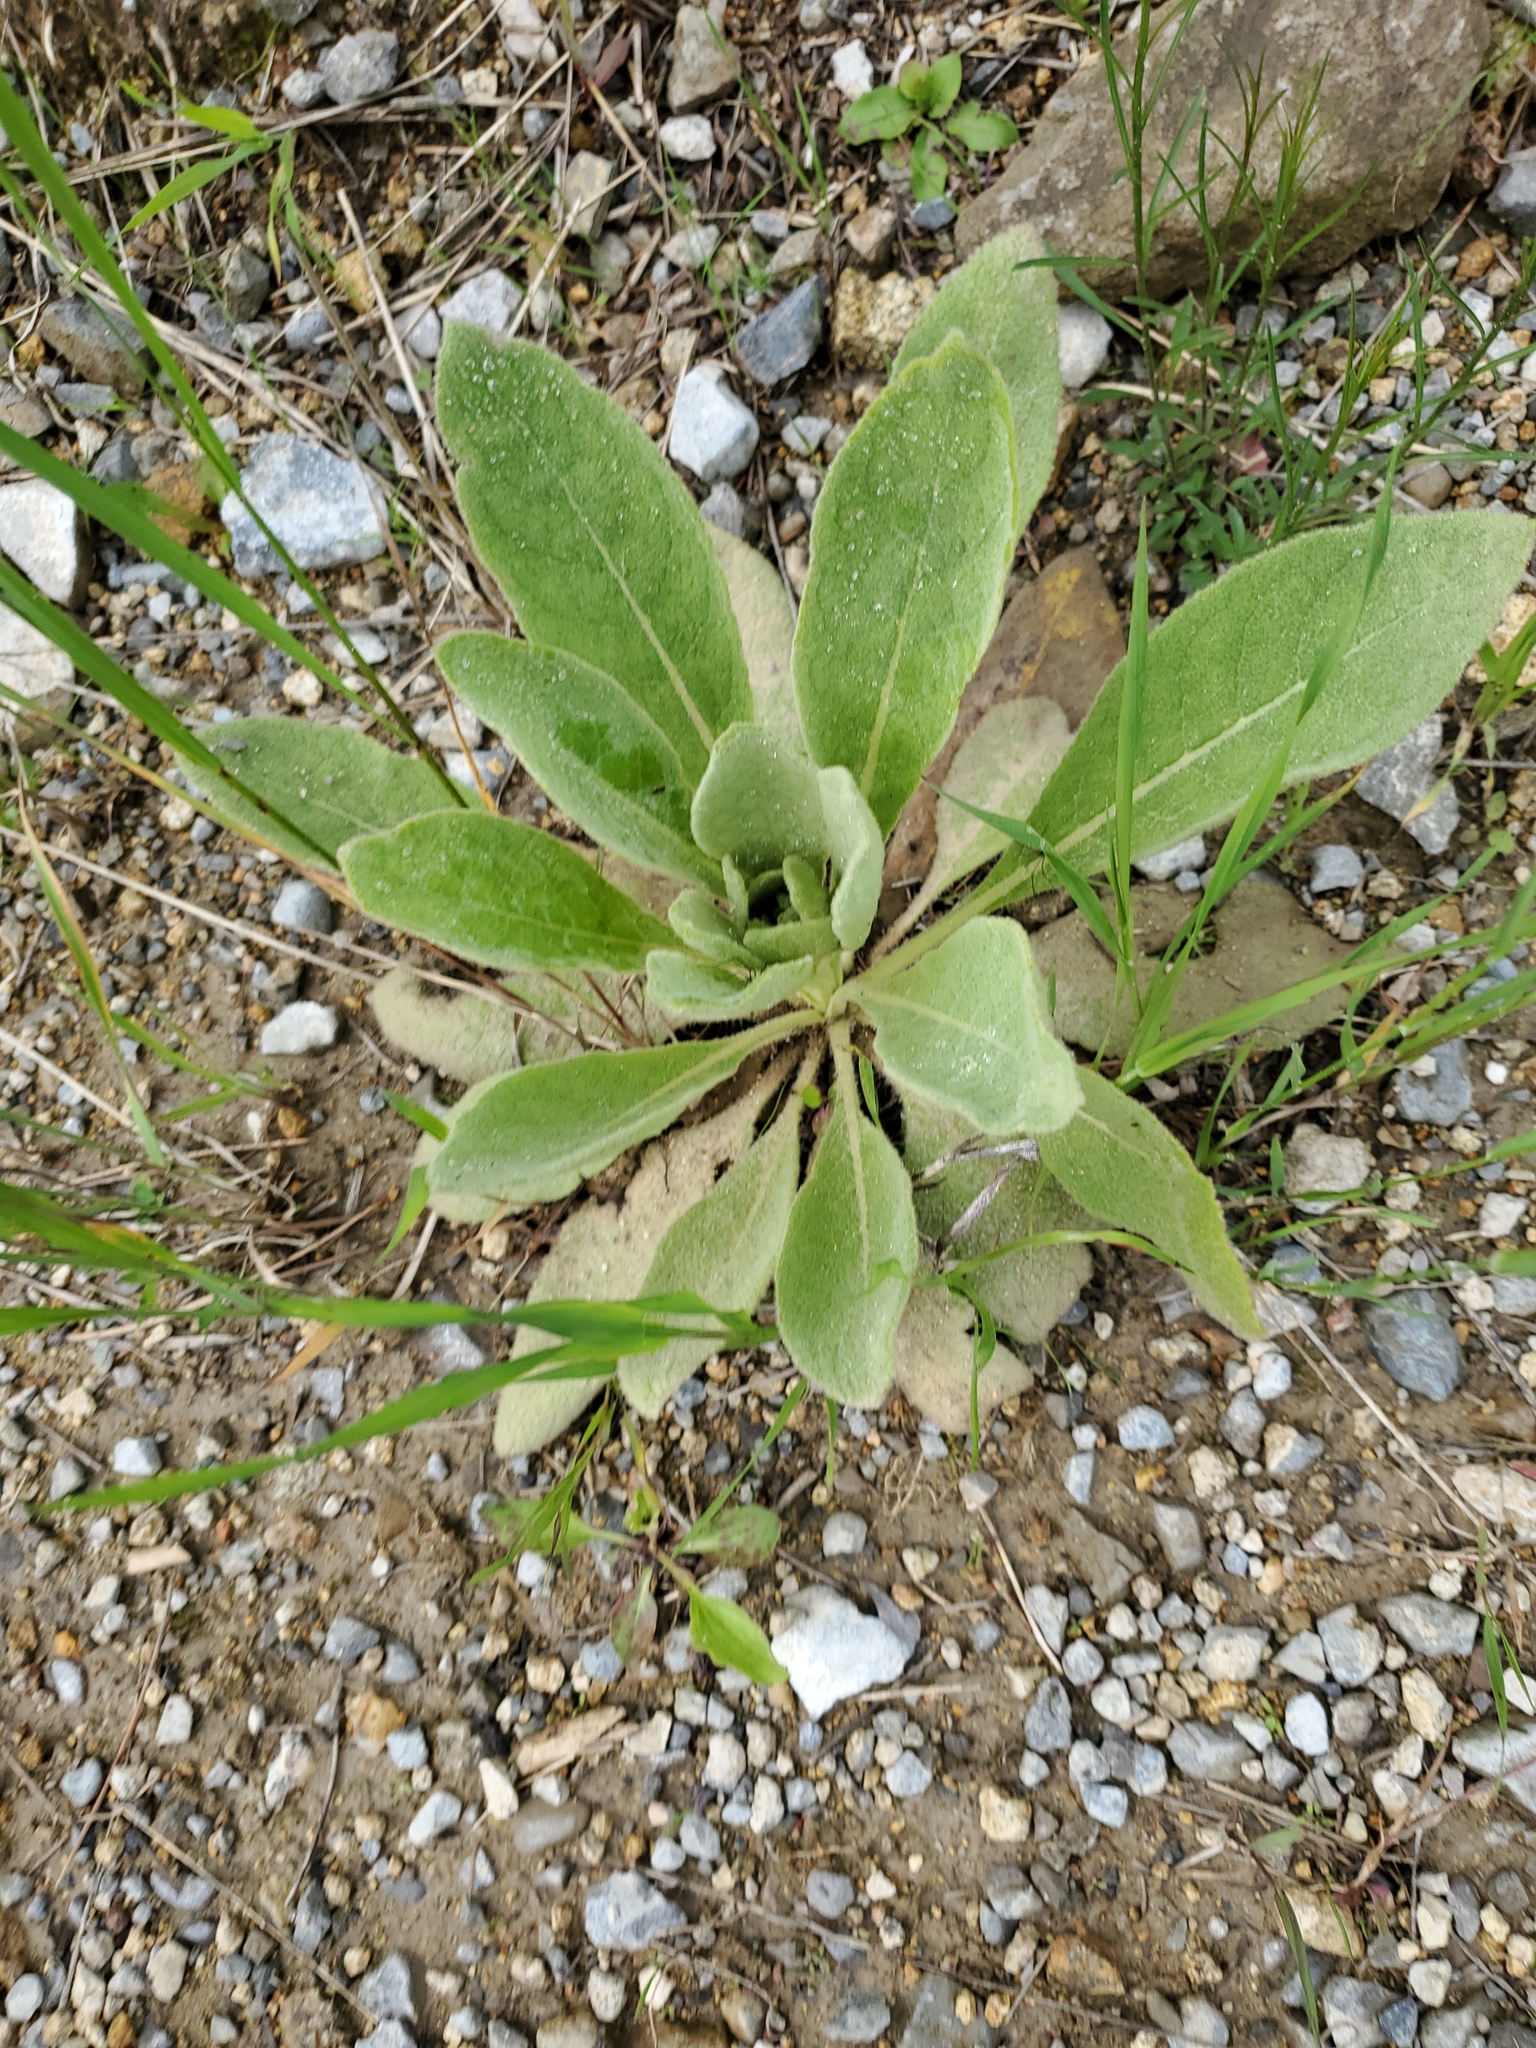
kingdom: Plantae
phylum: Tracheophyta
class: Magnoliopsida
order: Lamiales
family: Scrophulariaceae
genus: Verbascum
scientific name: Verbascum thapsus
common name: Common mullein
